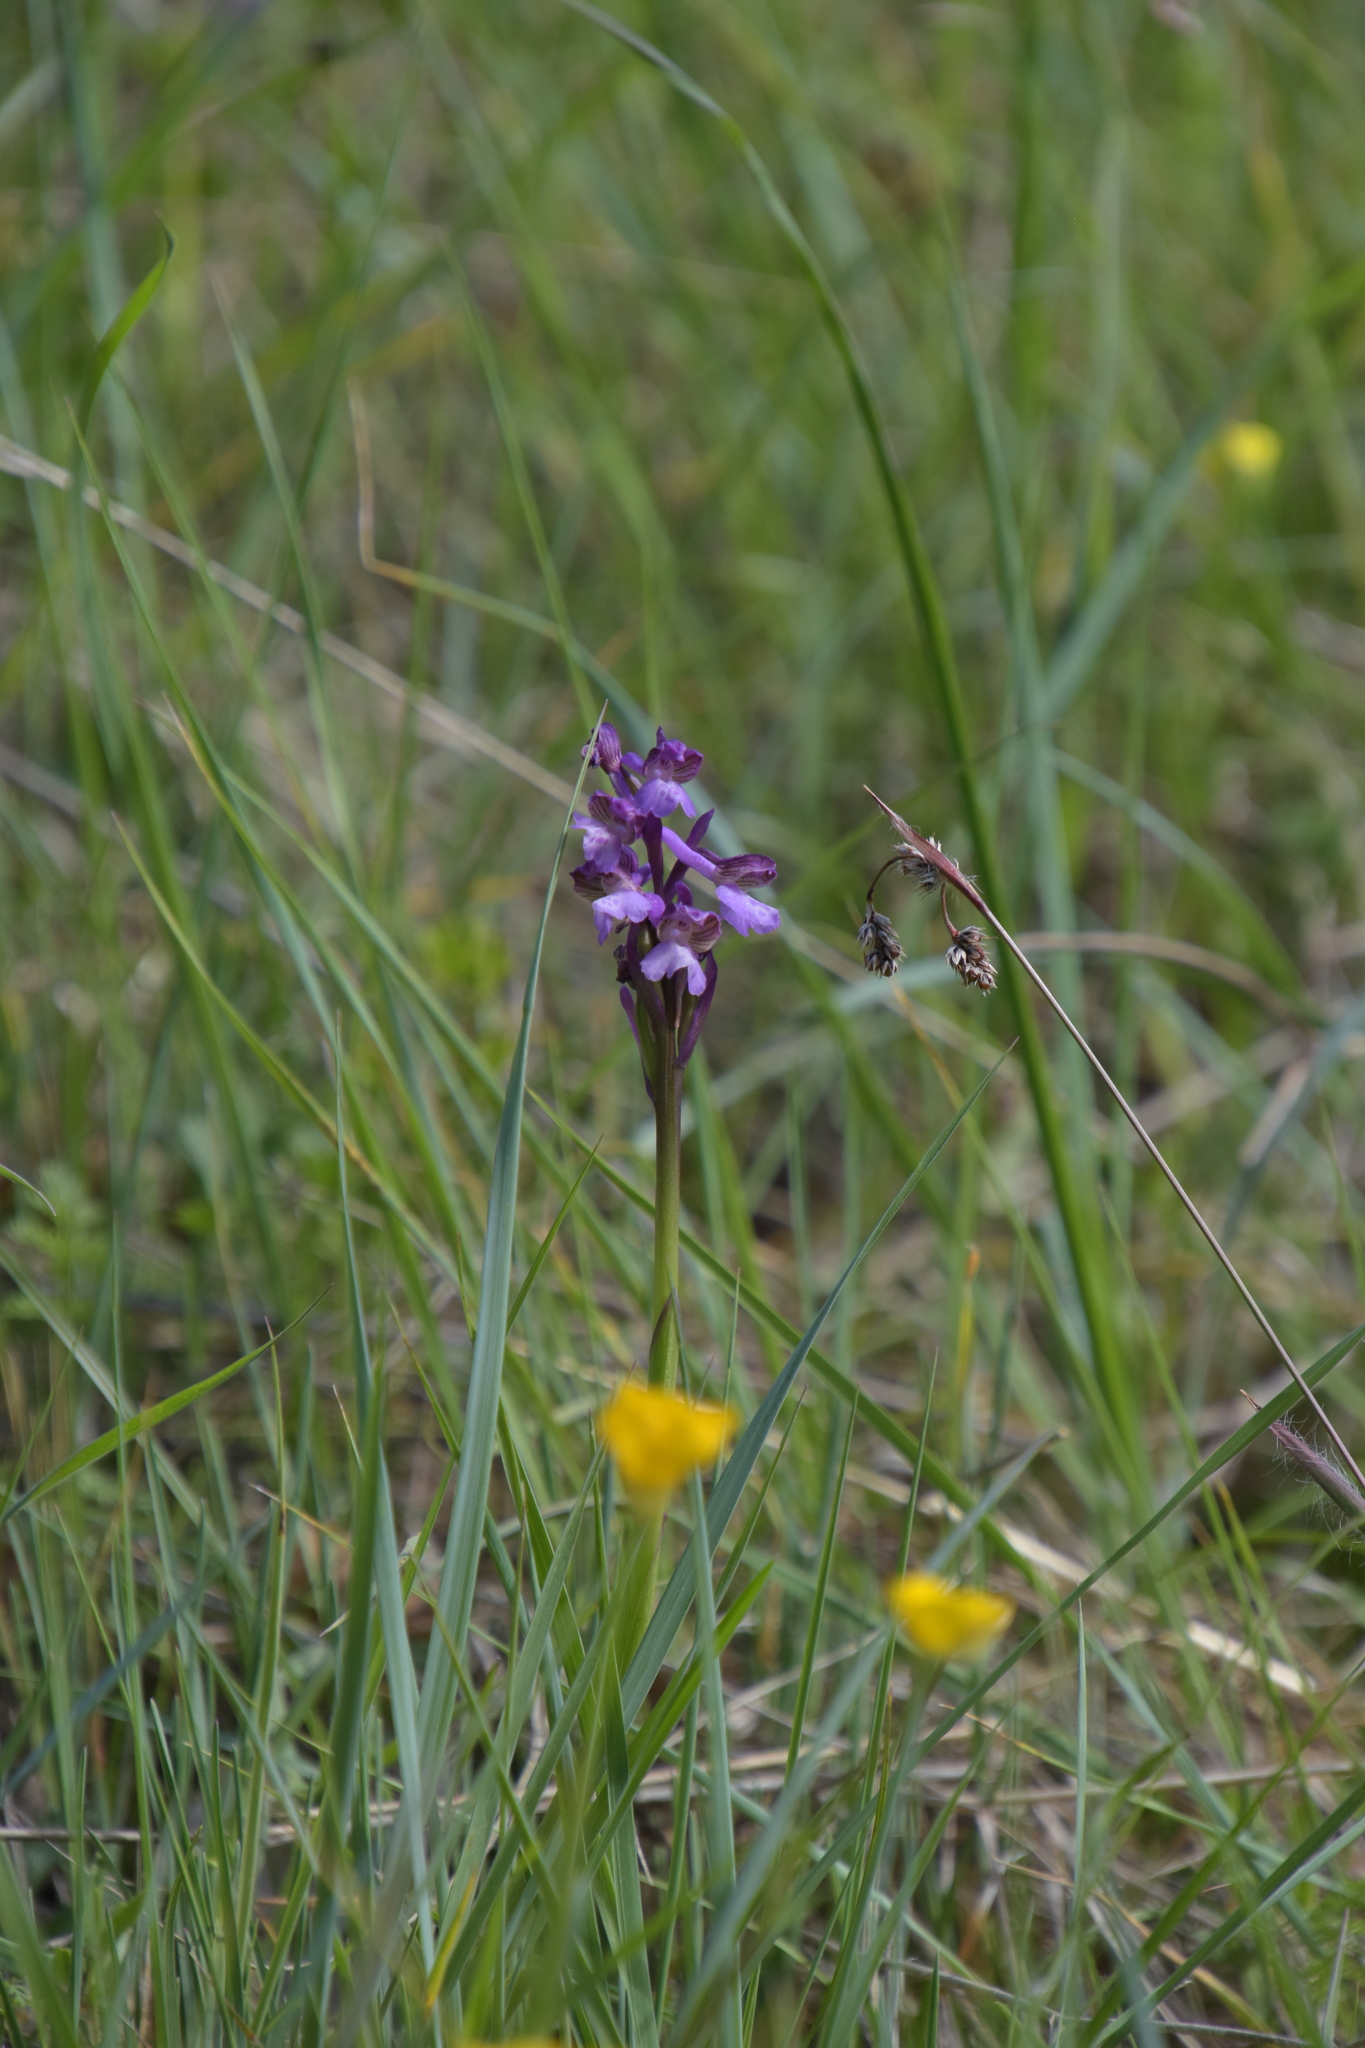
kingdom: Plantae
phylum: Tracheophyta
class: Liliopsida
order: Asparagales
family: Orchidaceae
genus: Anacamptis
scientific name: Anacamptis morio
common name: Green-winged orchid
